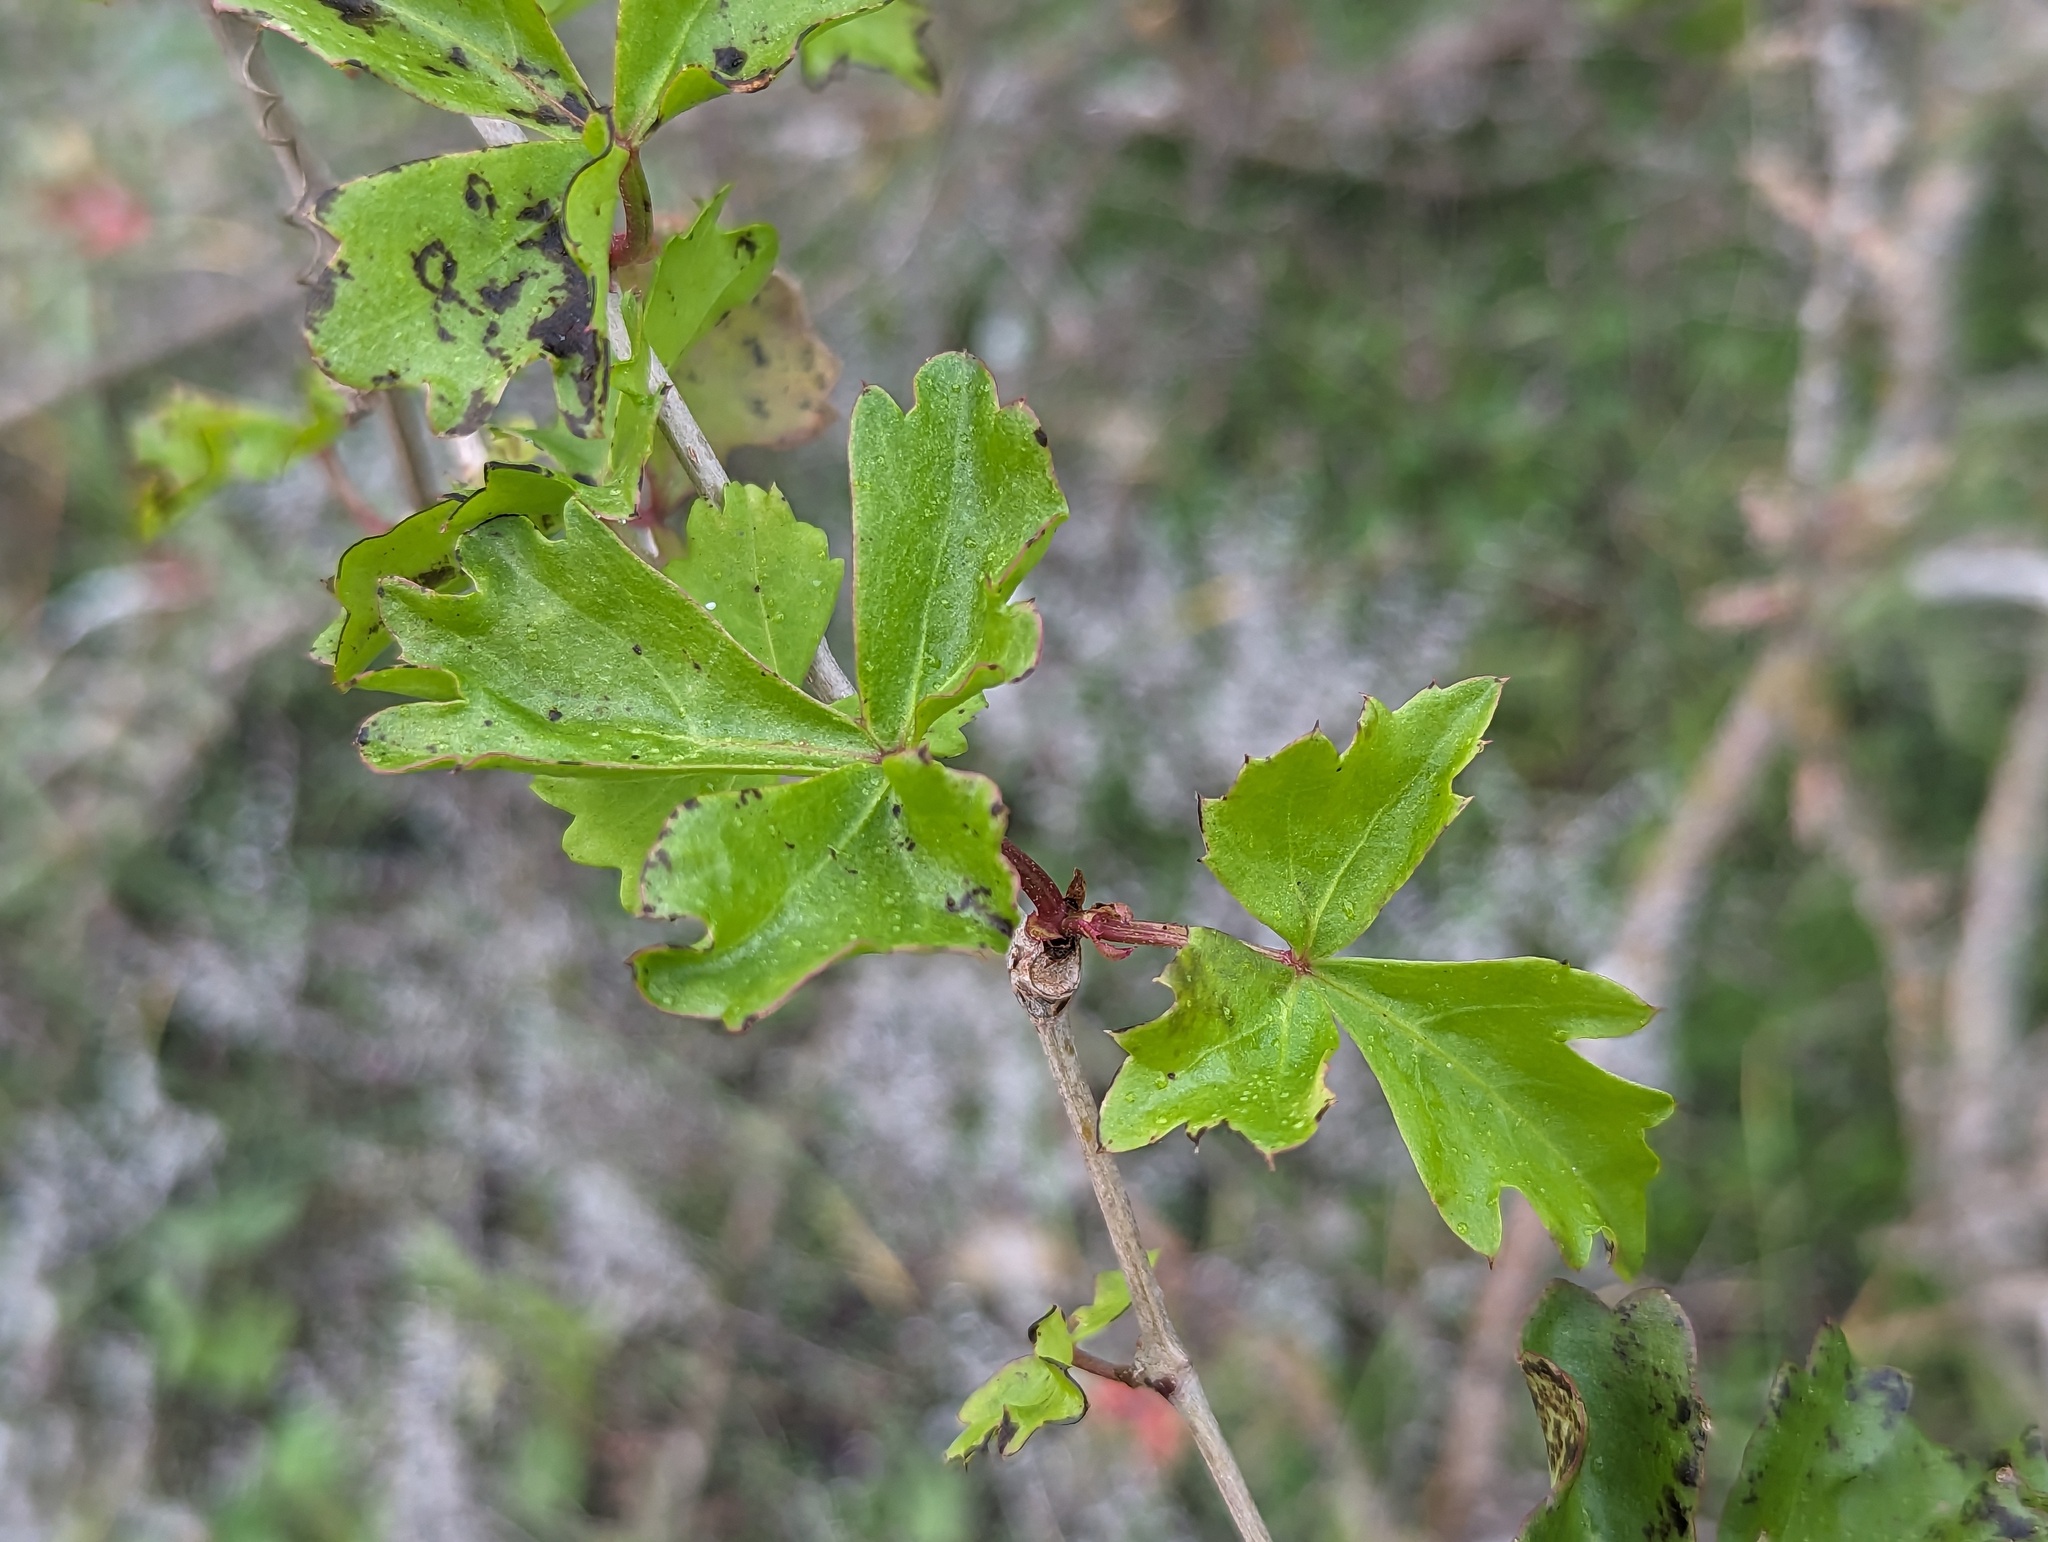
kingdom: Plantae
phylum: Tracheophyta
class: Magnoliopsida
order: Vitales
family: Vitaceae
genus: Cissus
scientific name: Cissus trifoliata
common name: Vine-sorrel
